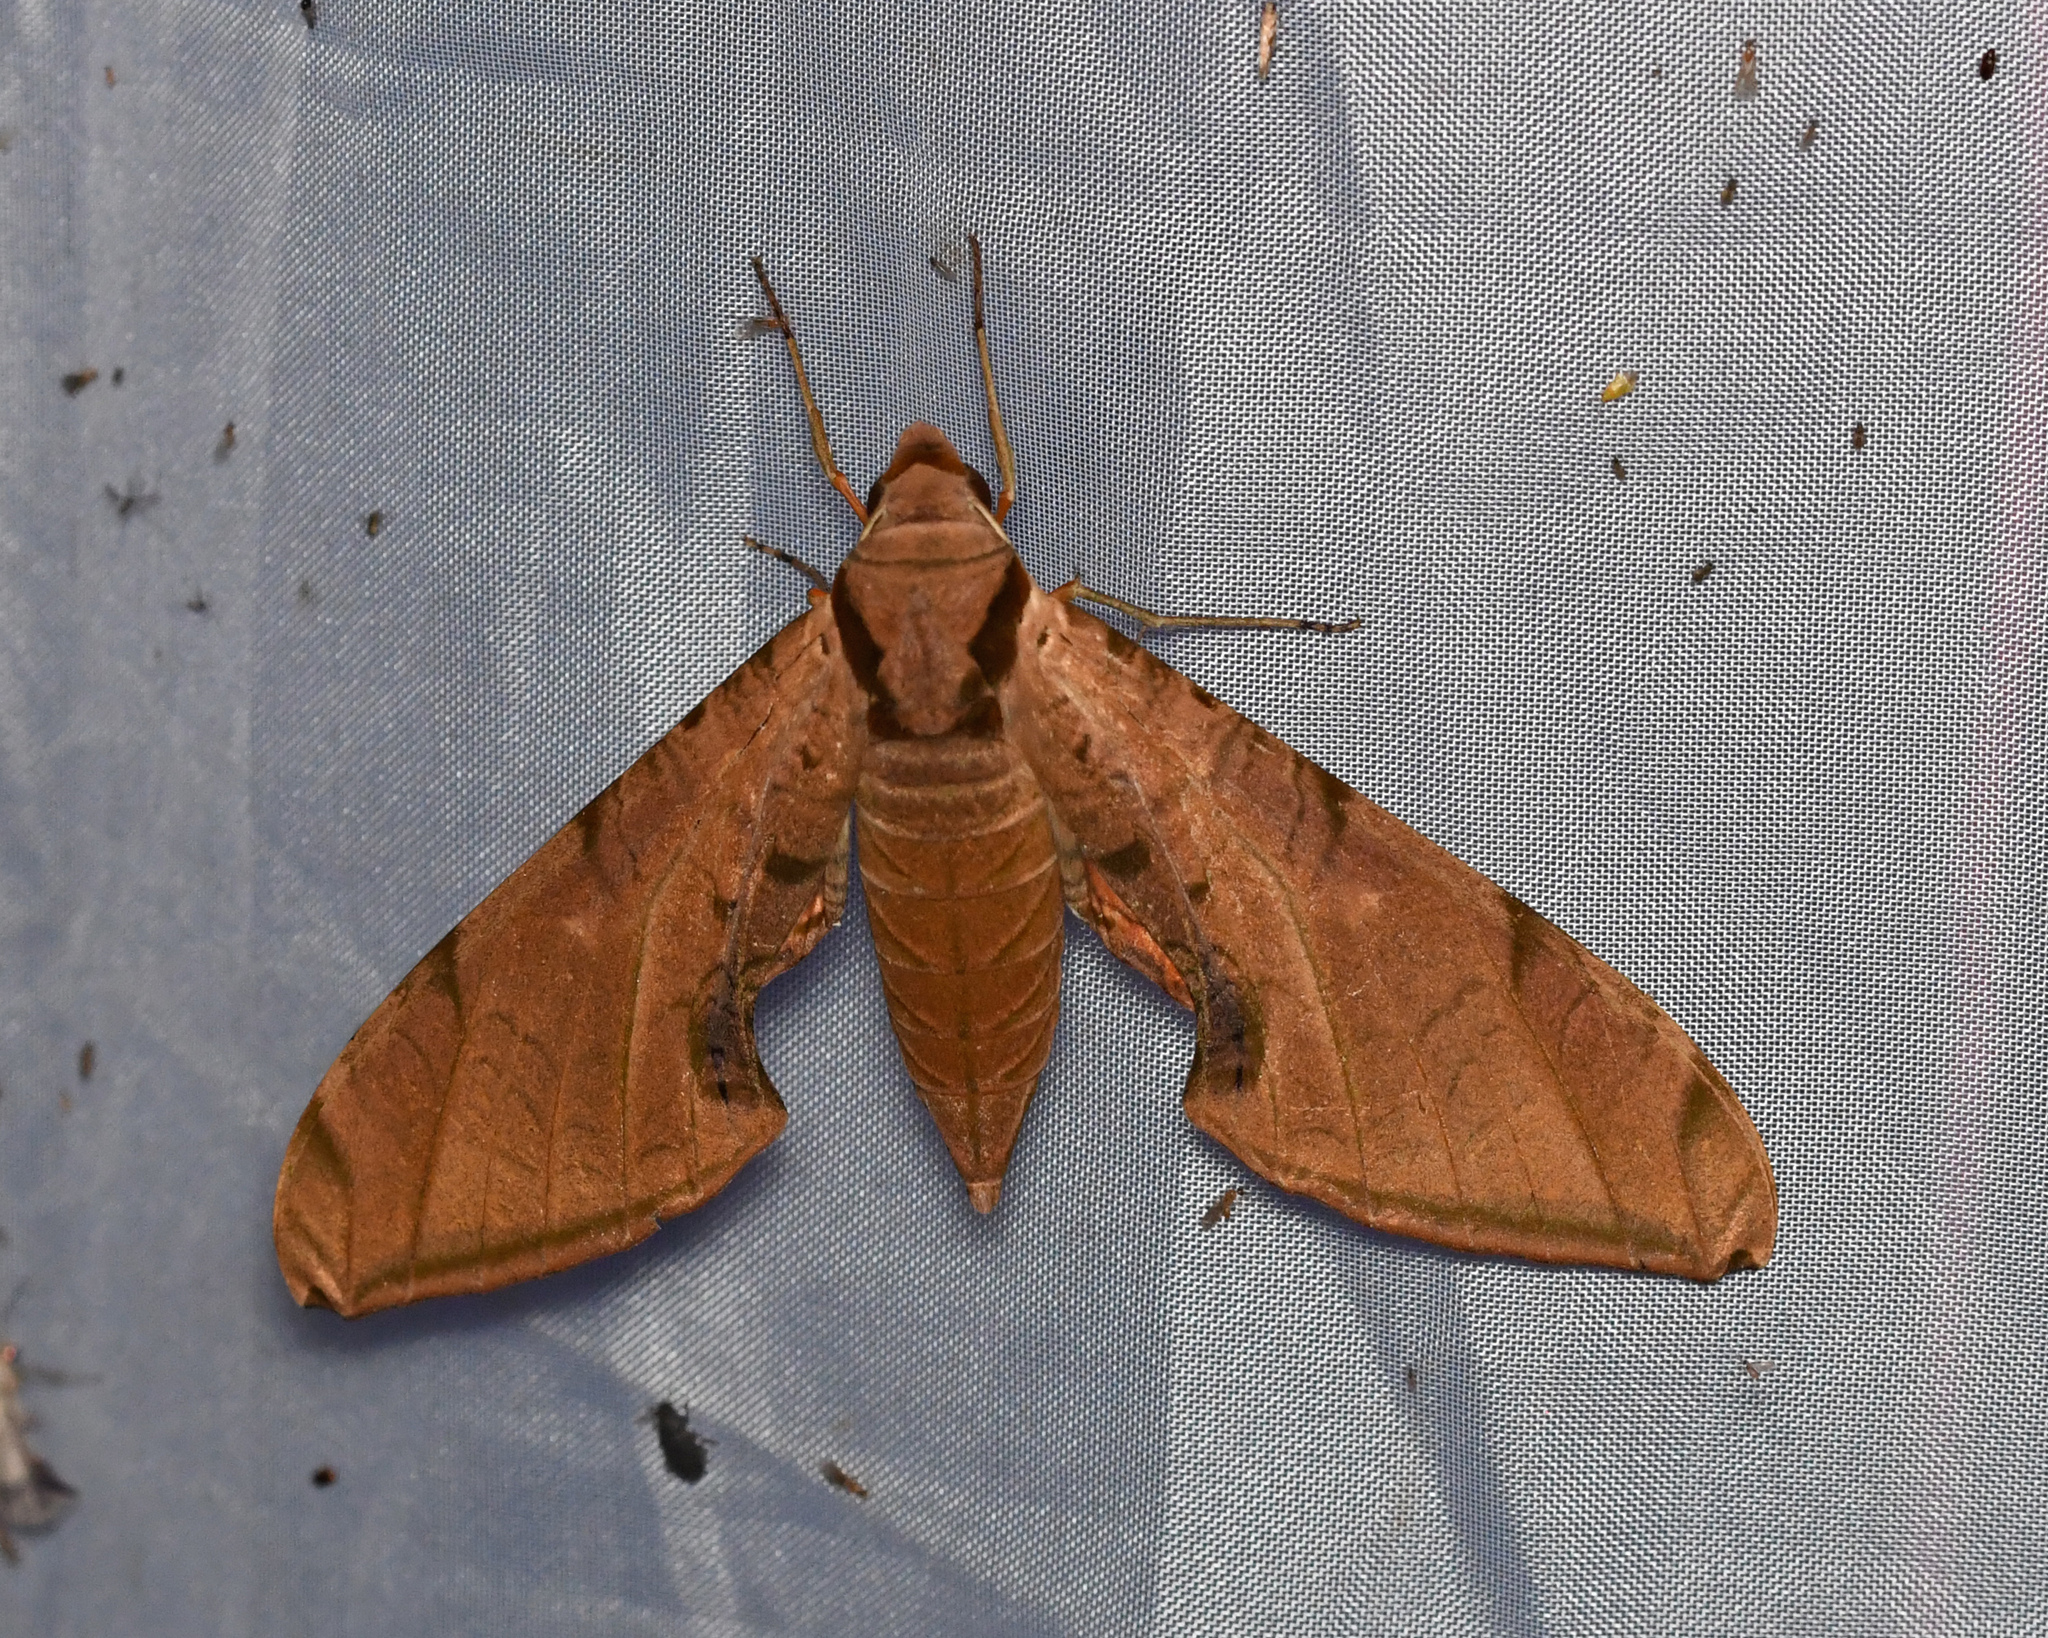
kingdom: Animalia
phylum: Arthropoda
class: Insecta
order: Lepidoptera
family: Sphingidae
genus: Protambulyx
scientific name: Protambulyx strigilis
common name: Streaked sphinx
